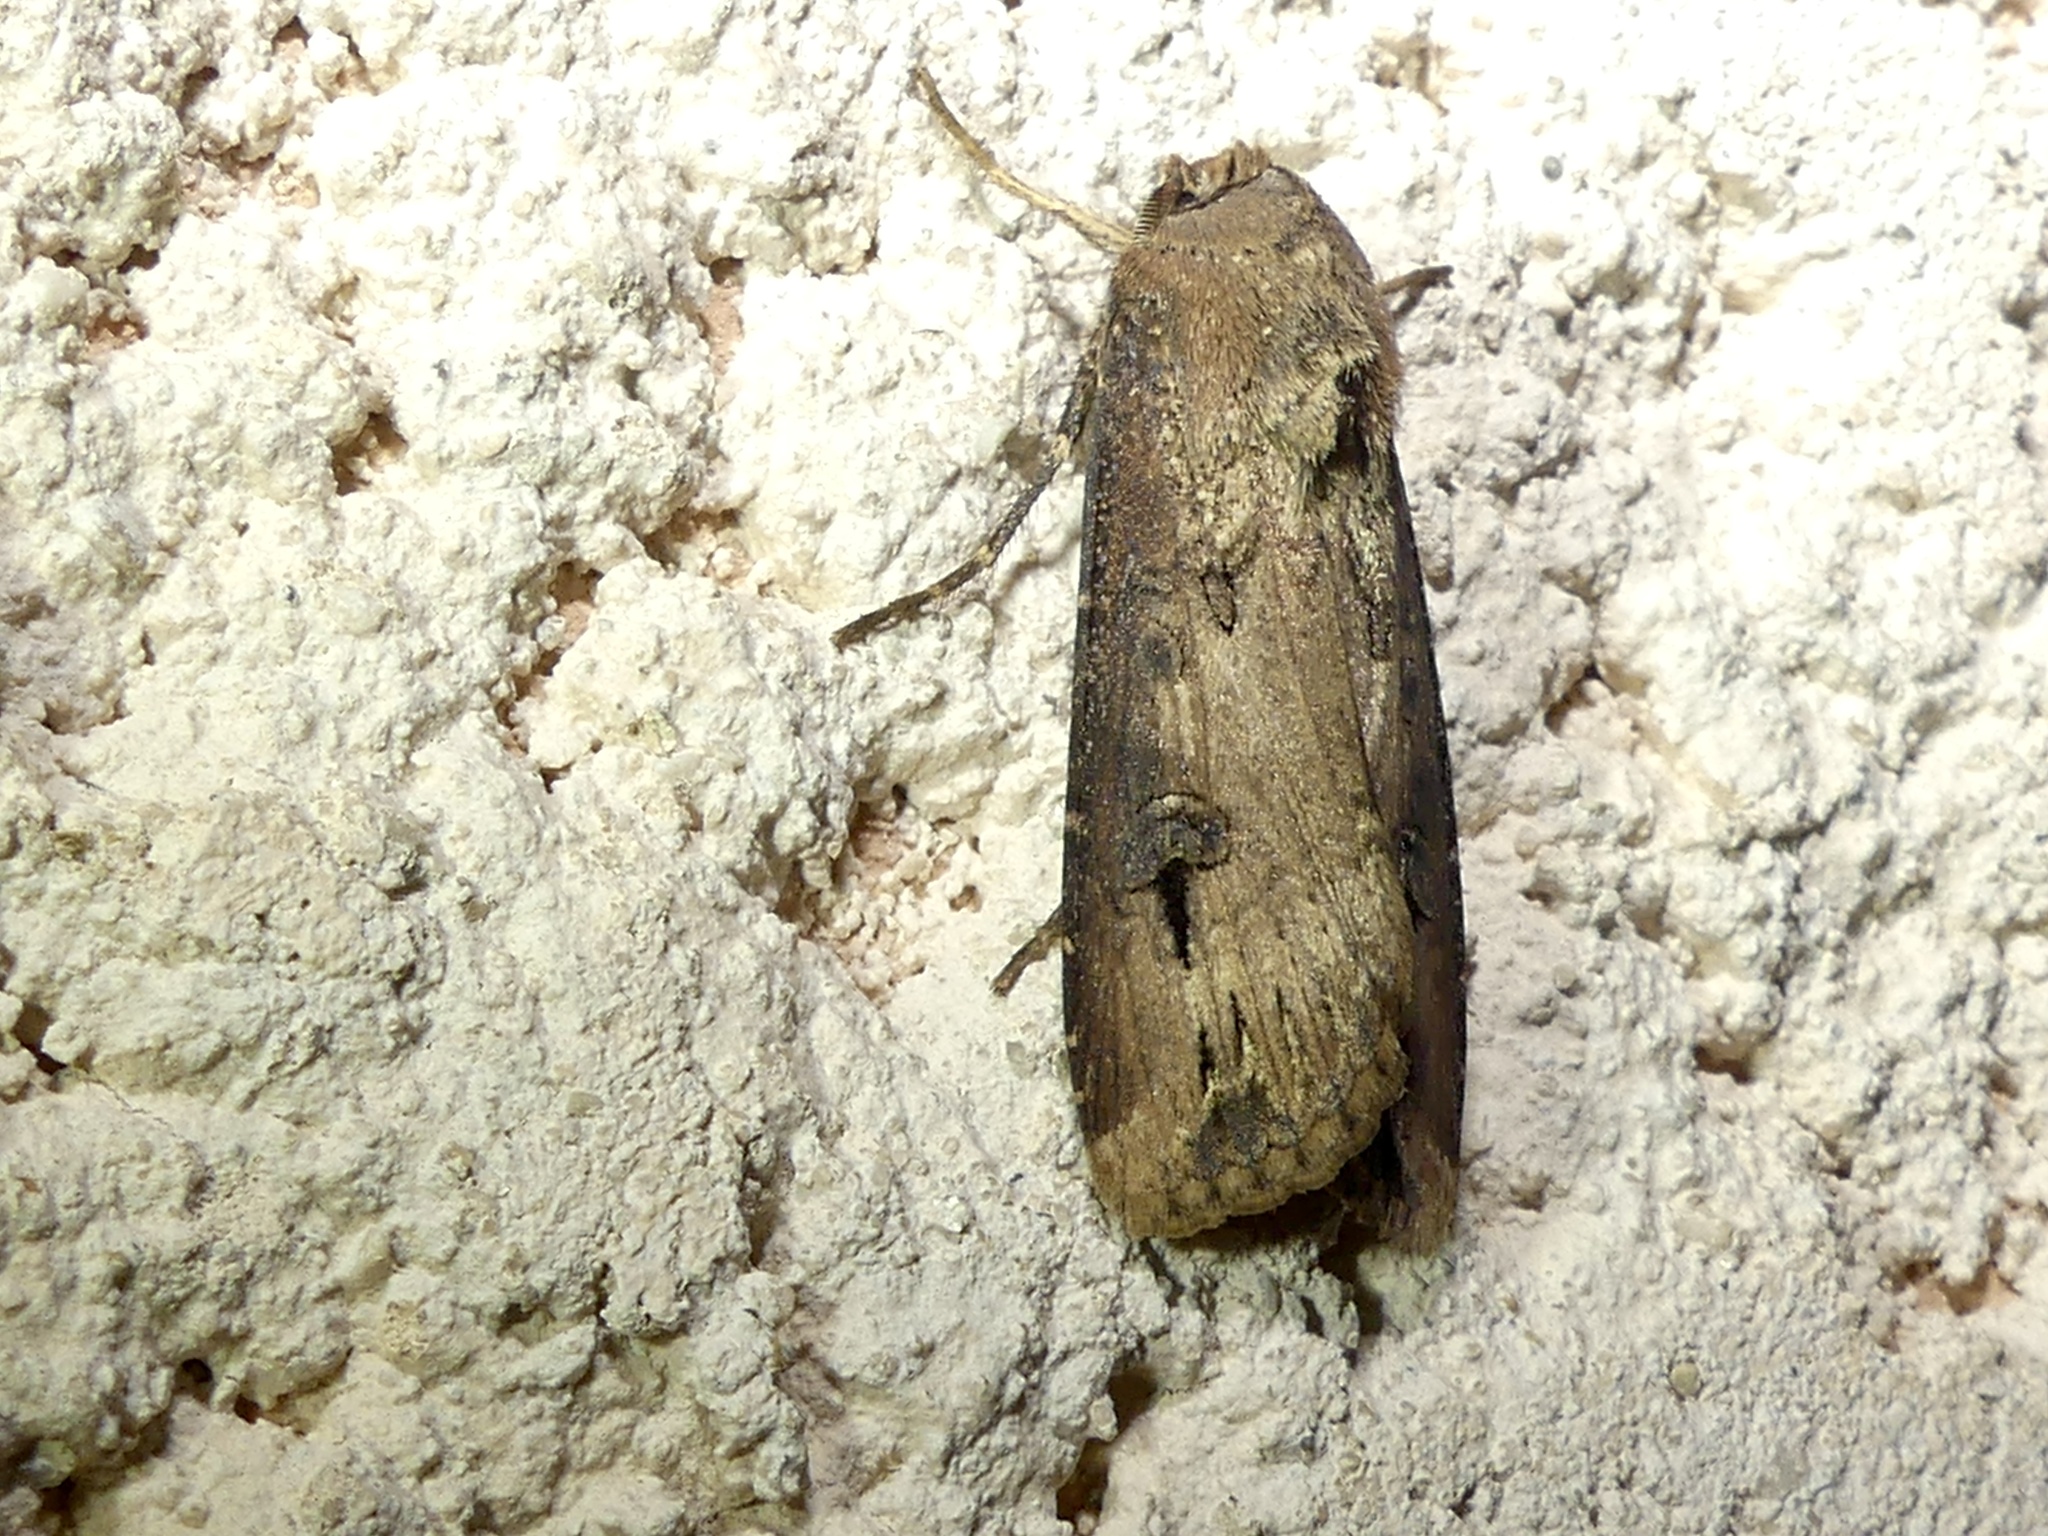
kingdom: Animalia
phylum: Arthropoda
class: Insecta
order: Lepidoptera
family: Noctuidae
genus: Agrotis
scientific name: Agrotis ipsilon
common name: Dark sword-grass
